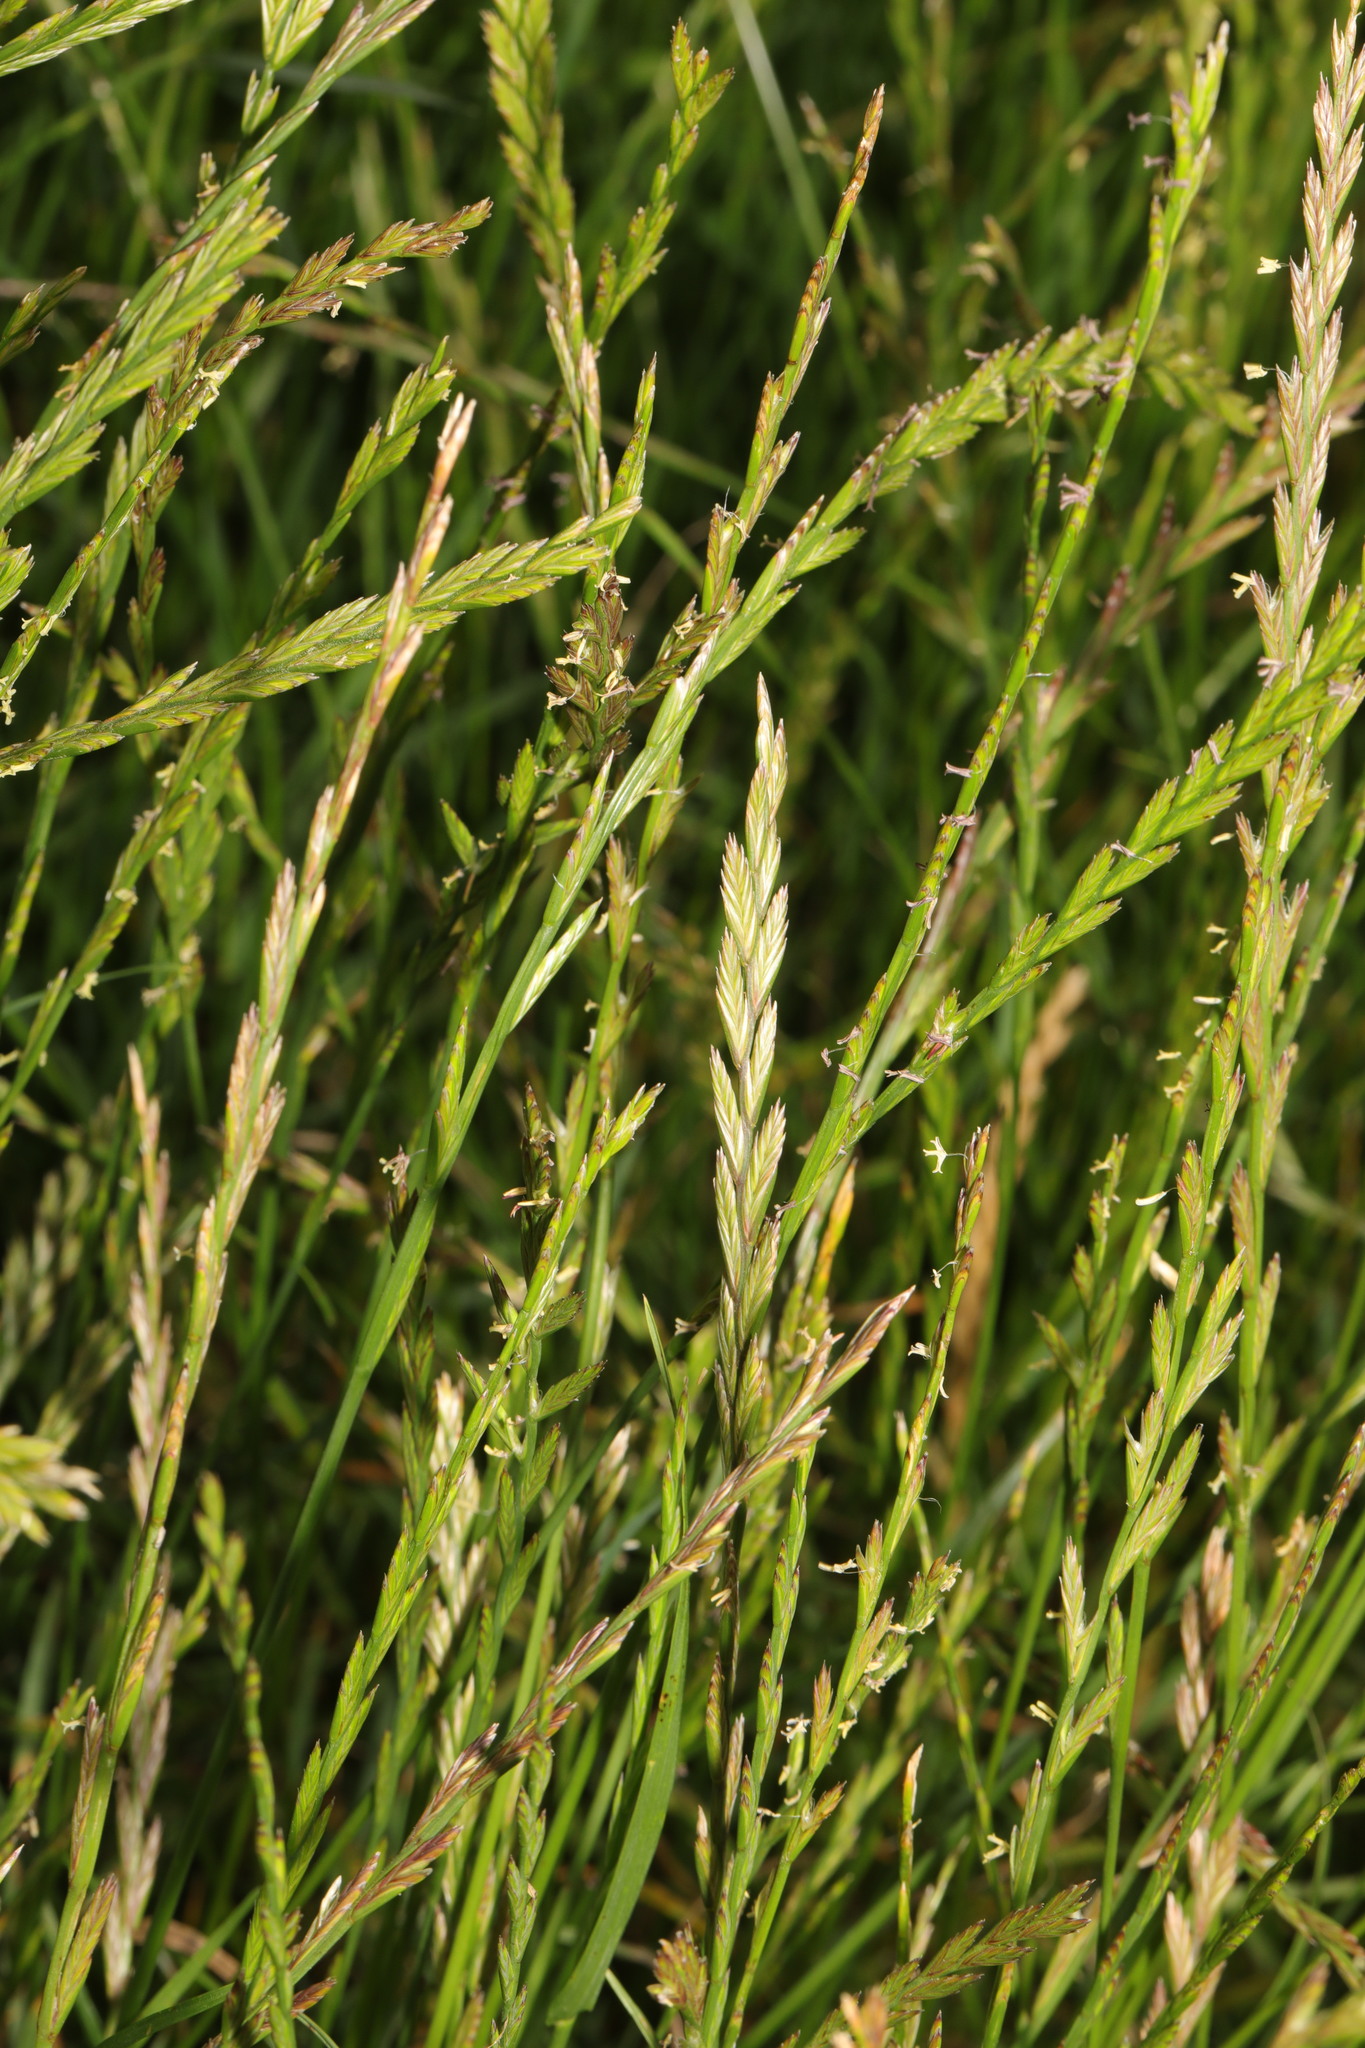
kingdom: Plantae
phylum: Tracheophyta
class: Liliopsida
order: Poales
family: Poaceae
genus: Lolium
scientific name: Lolium perenne
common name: Perennial ryegrass
